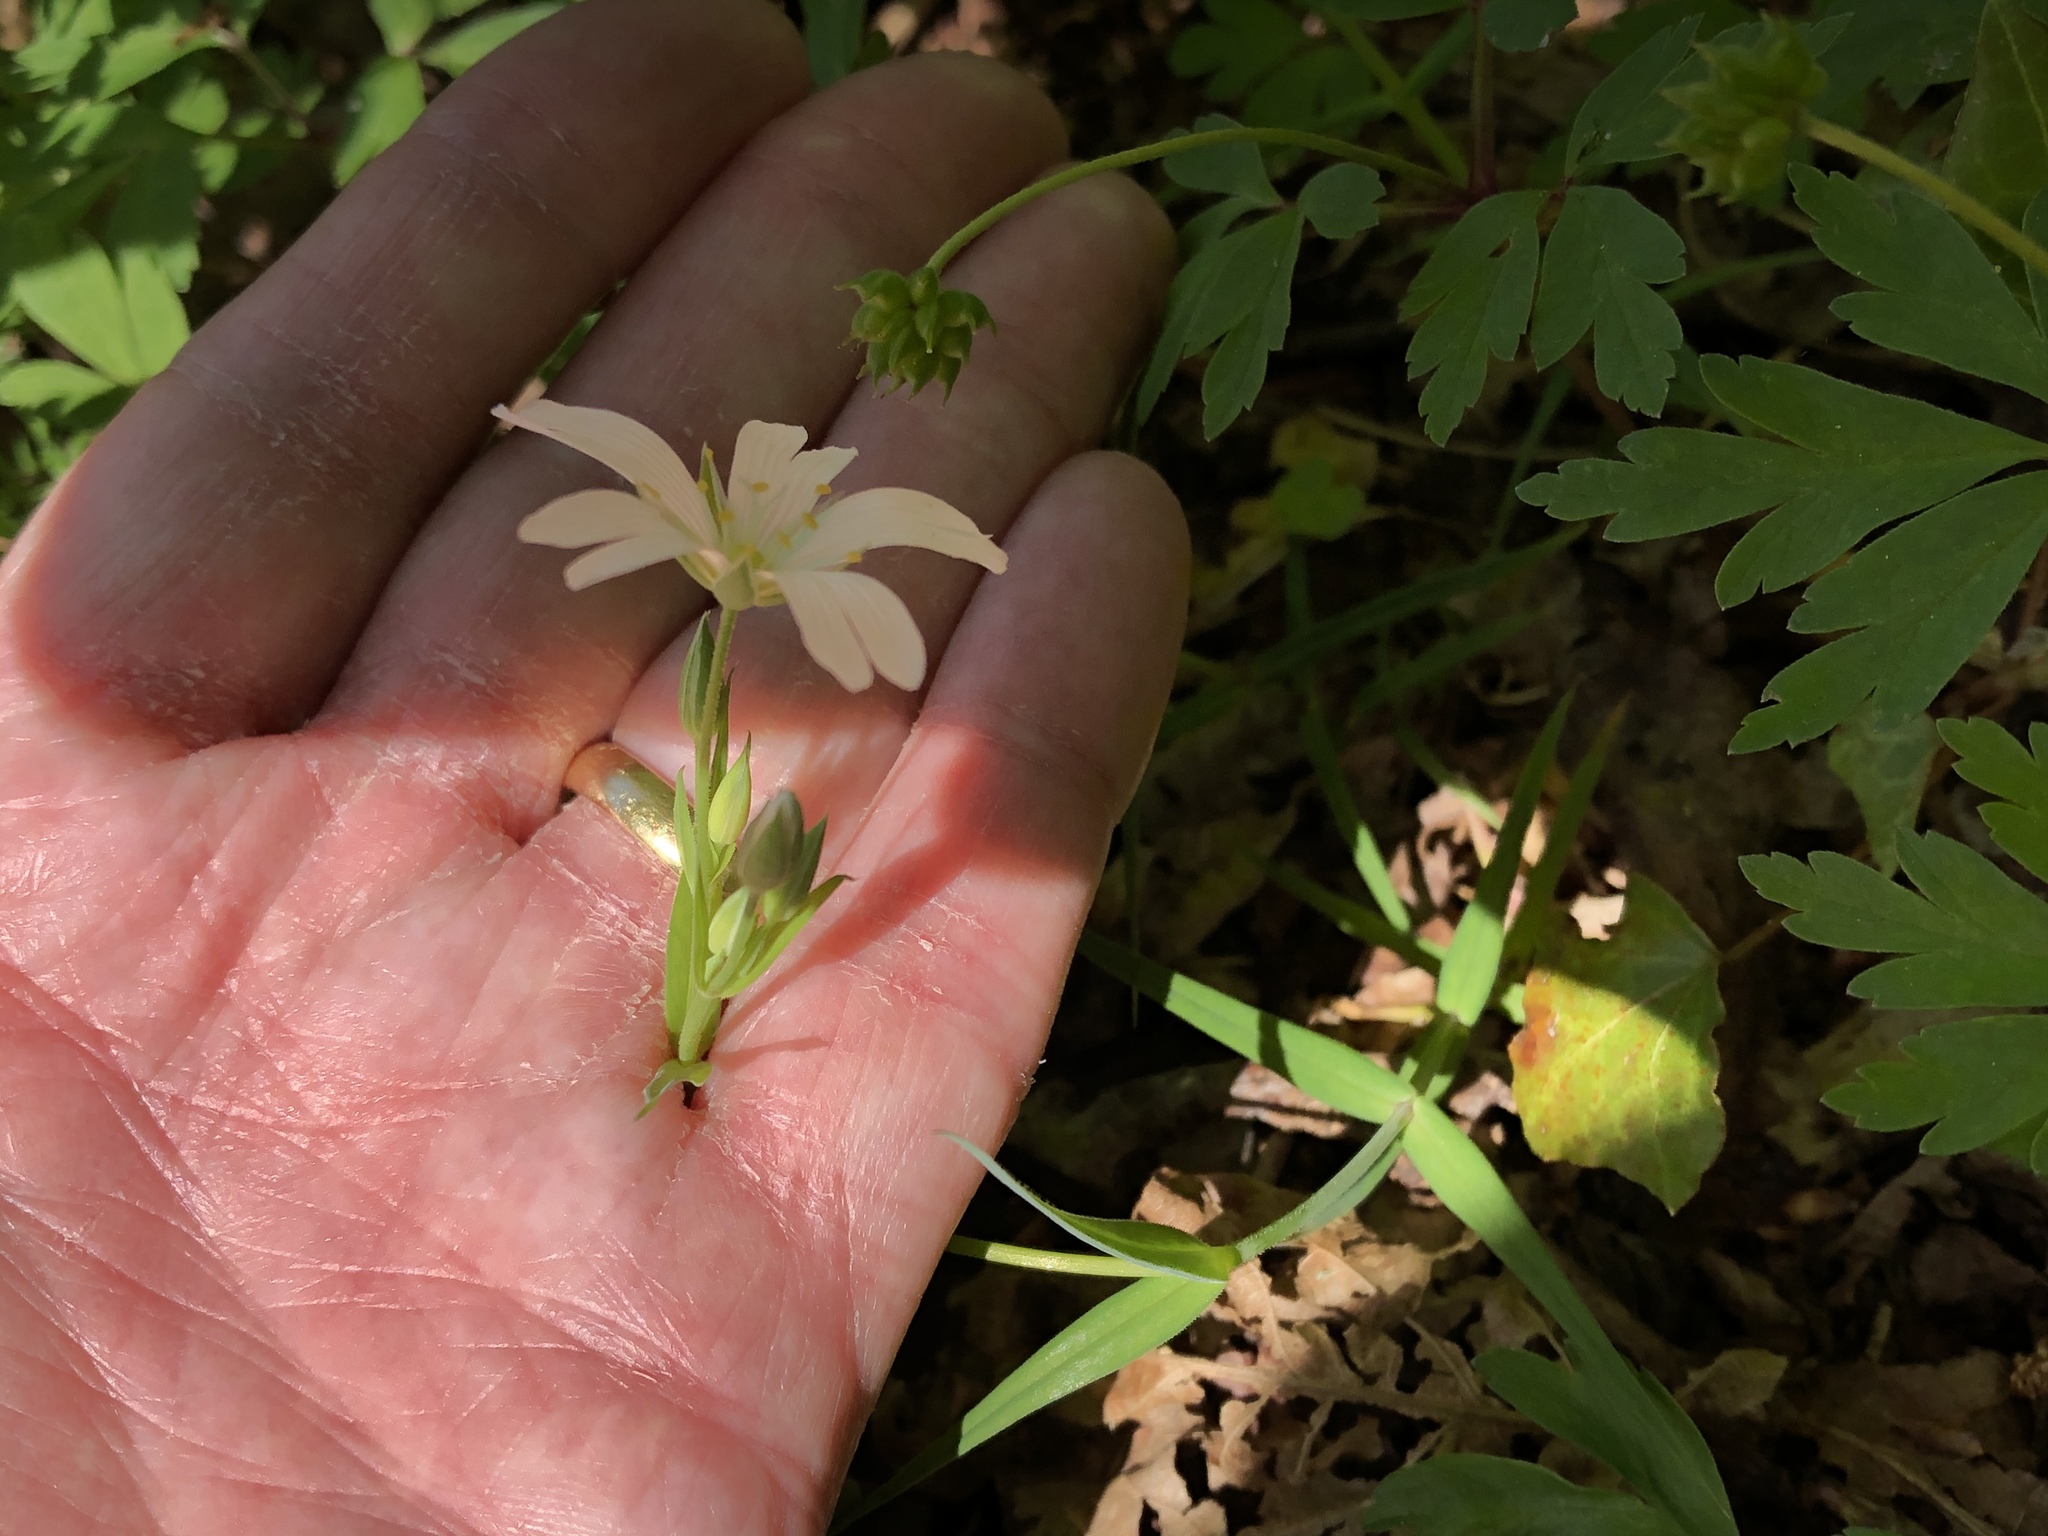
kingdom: Plantae
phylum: Tracheophyta
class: Magnoliopsida
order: Caryophyllales
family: Caryophyllaceae
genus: Rabelera
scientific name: Rabelera holostea
